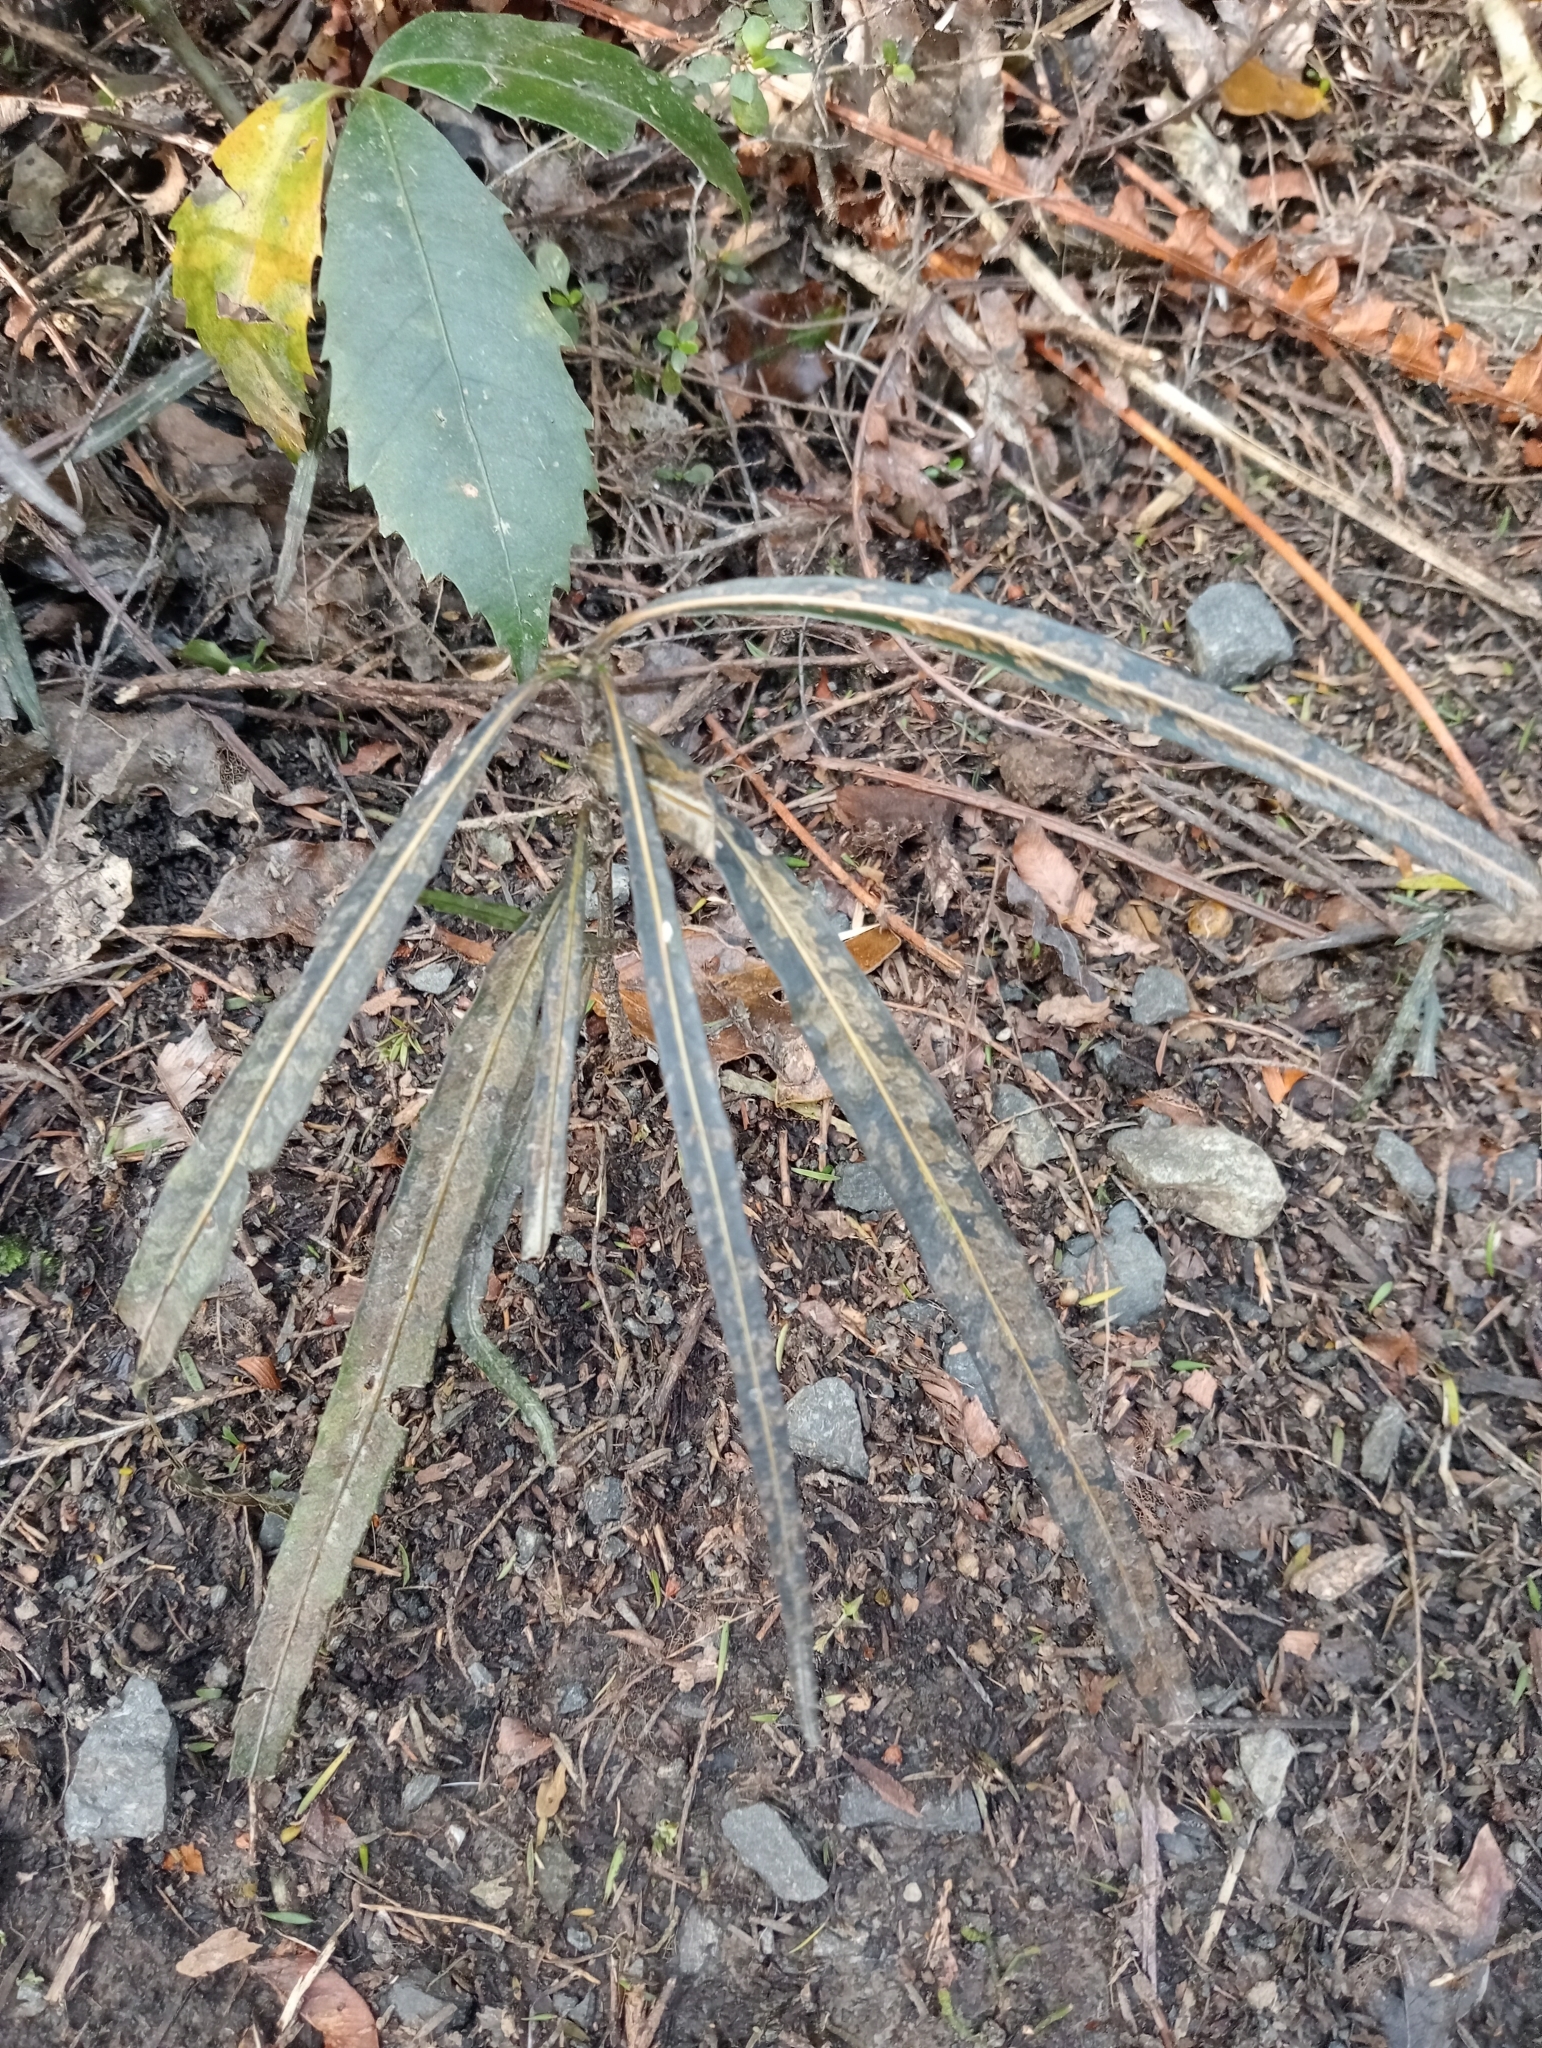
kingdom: Plantae
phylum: Tracheophyta
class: Magnoliopsida
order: Apiales
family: Araliaceae
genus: Pseudopanax
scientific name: Pseudopanax crassifolius
